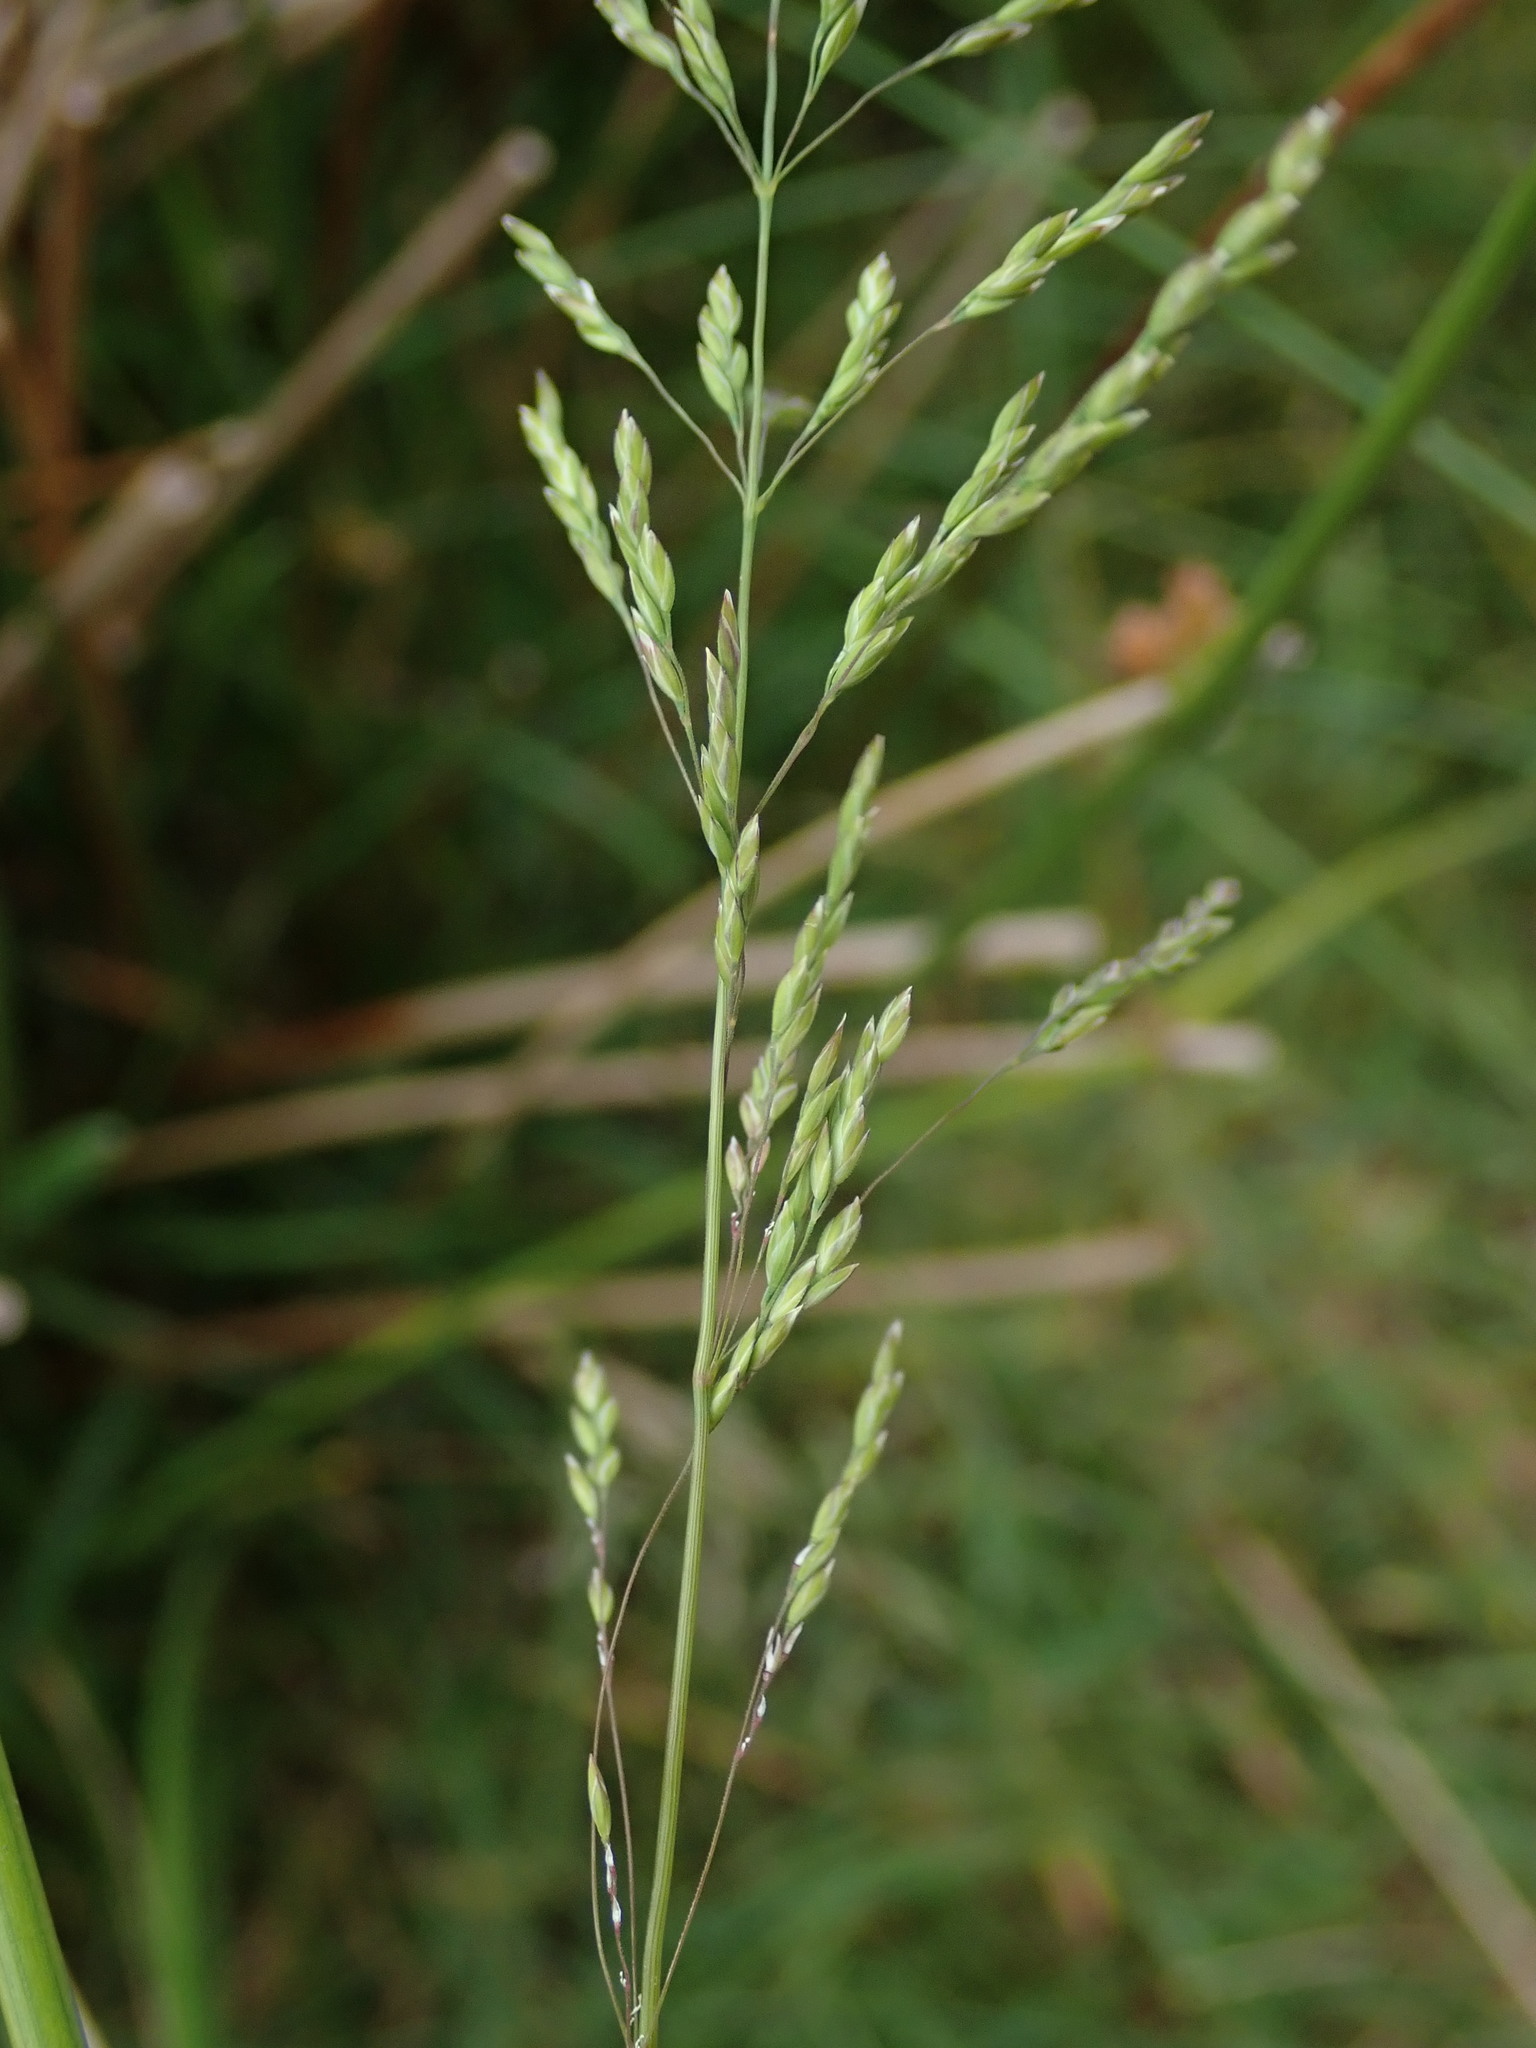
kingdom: Plantae
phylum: Tracheophyta
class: Liliopsida
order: Poales
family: Poaceae
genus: Poa
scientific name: Poa trivialis
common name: Rough bluegrass
